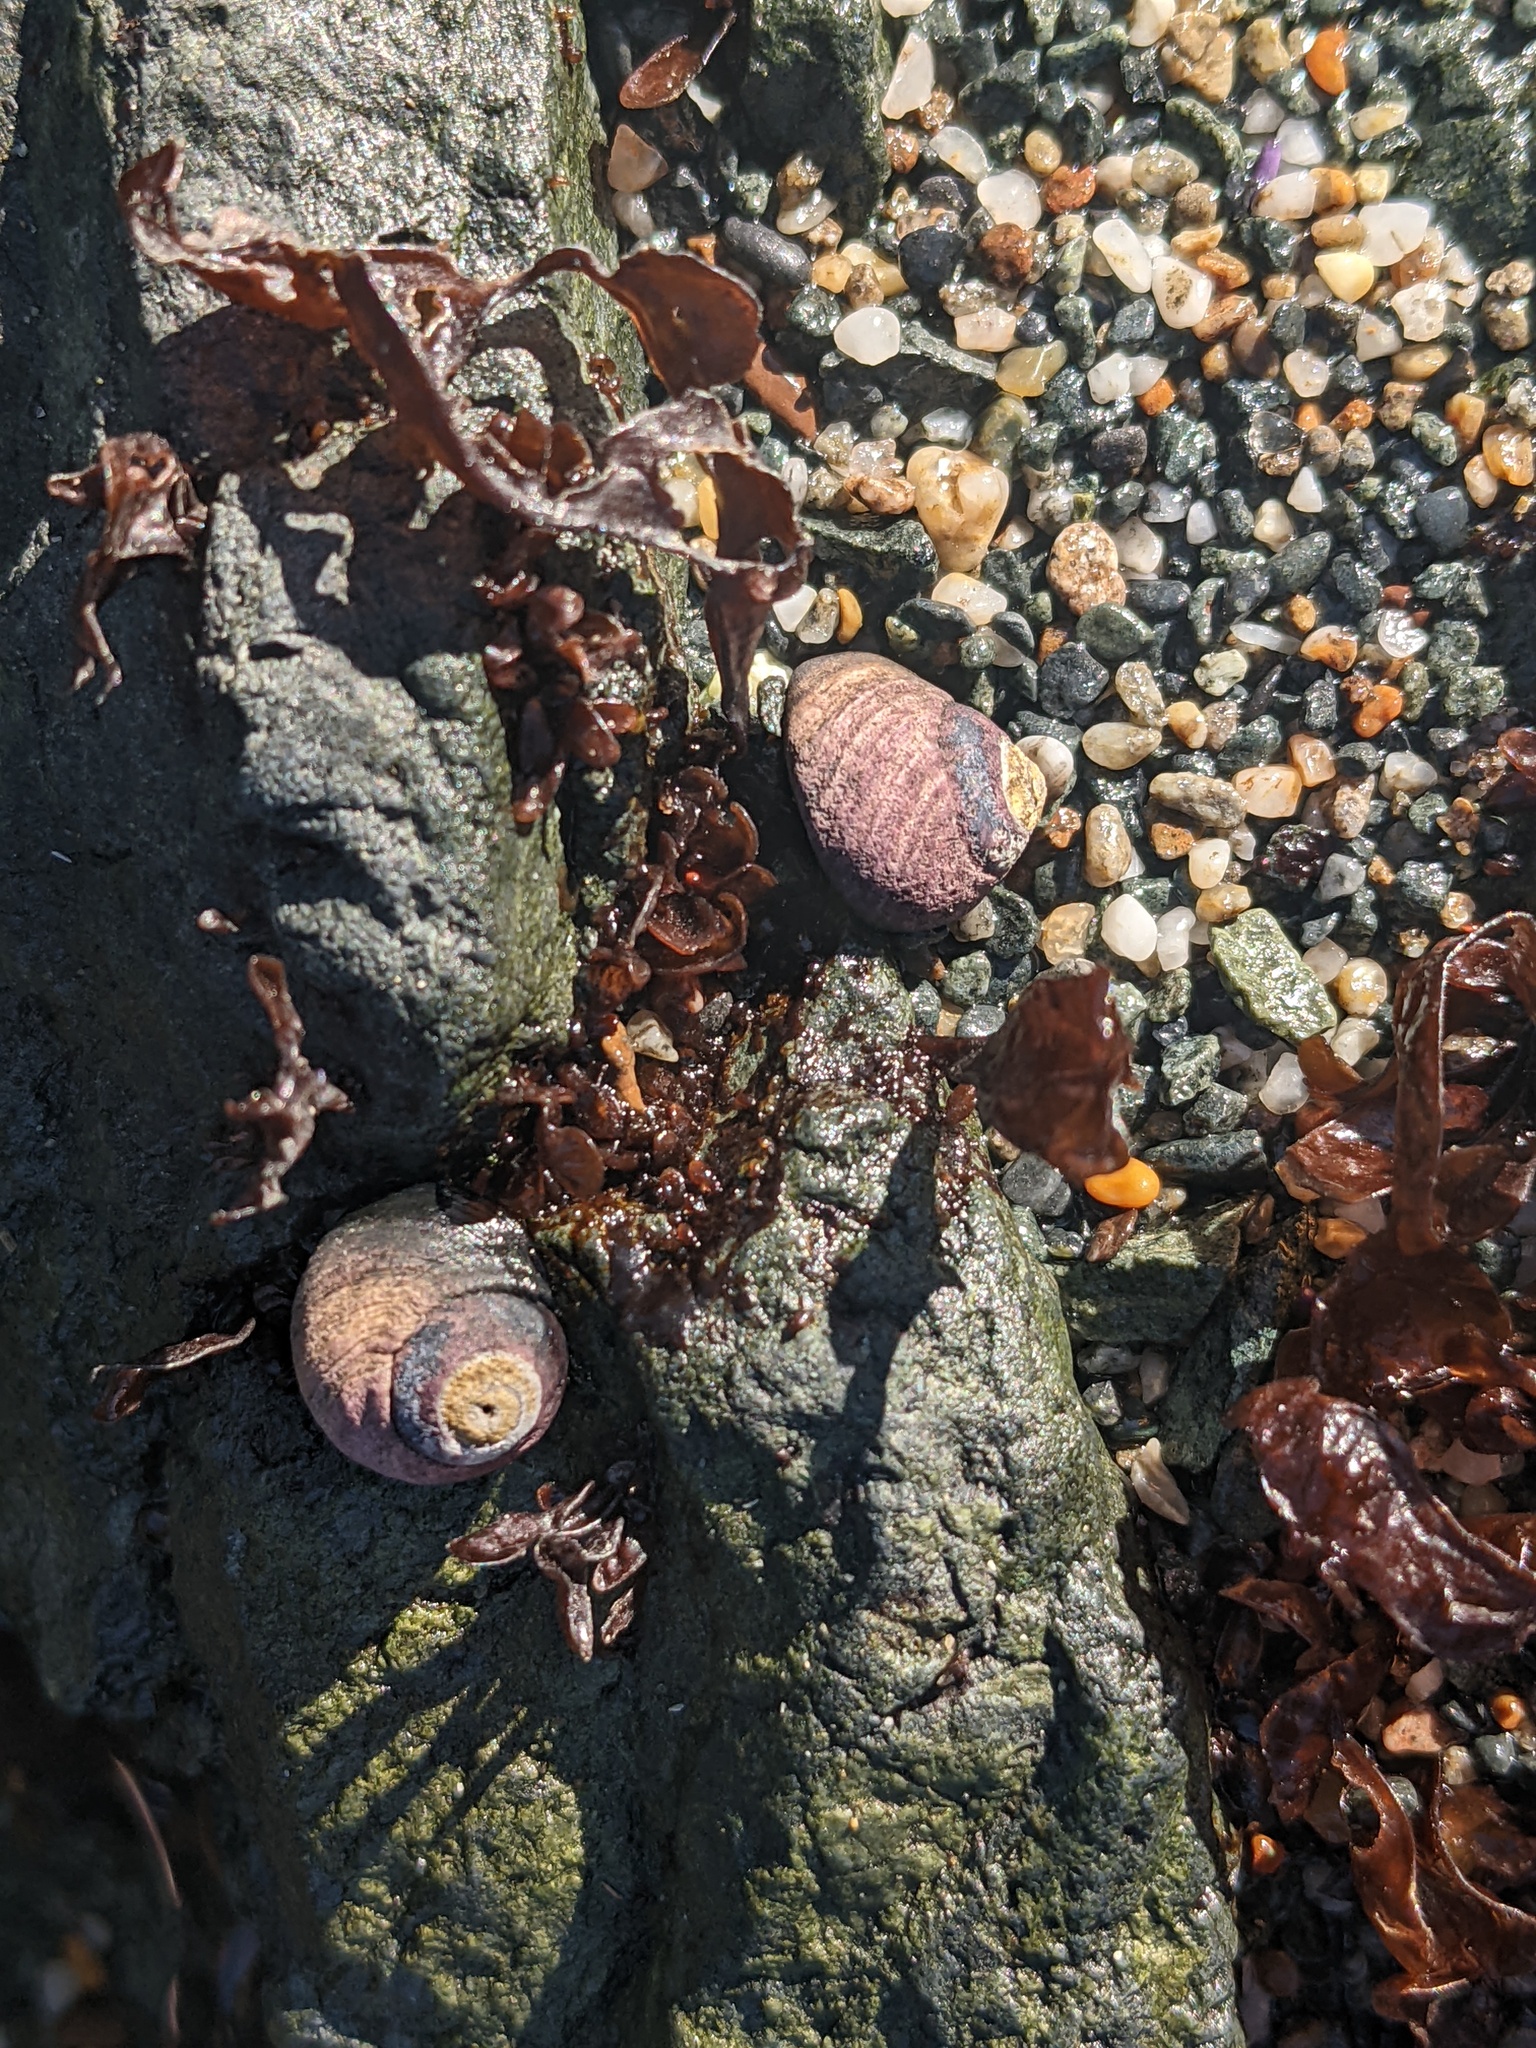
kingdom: Animalia
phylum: Mollusca
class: Gastropoda
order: Trochida
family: Tegulidae
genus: Tegula
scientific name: Tegula funebralis
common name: Black tegula
